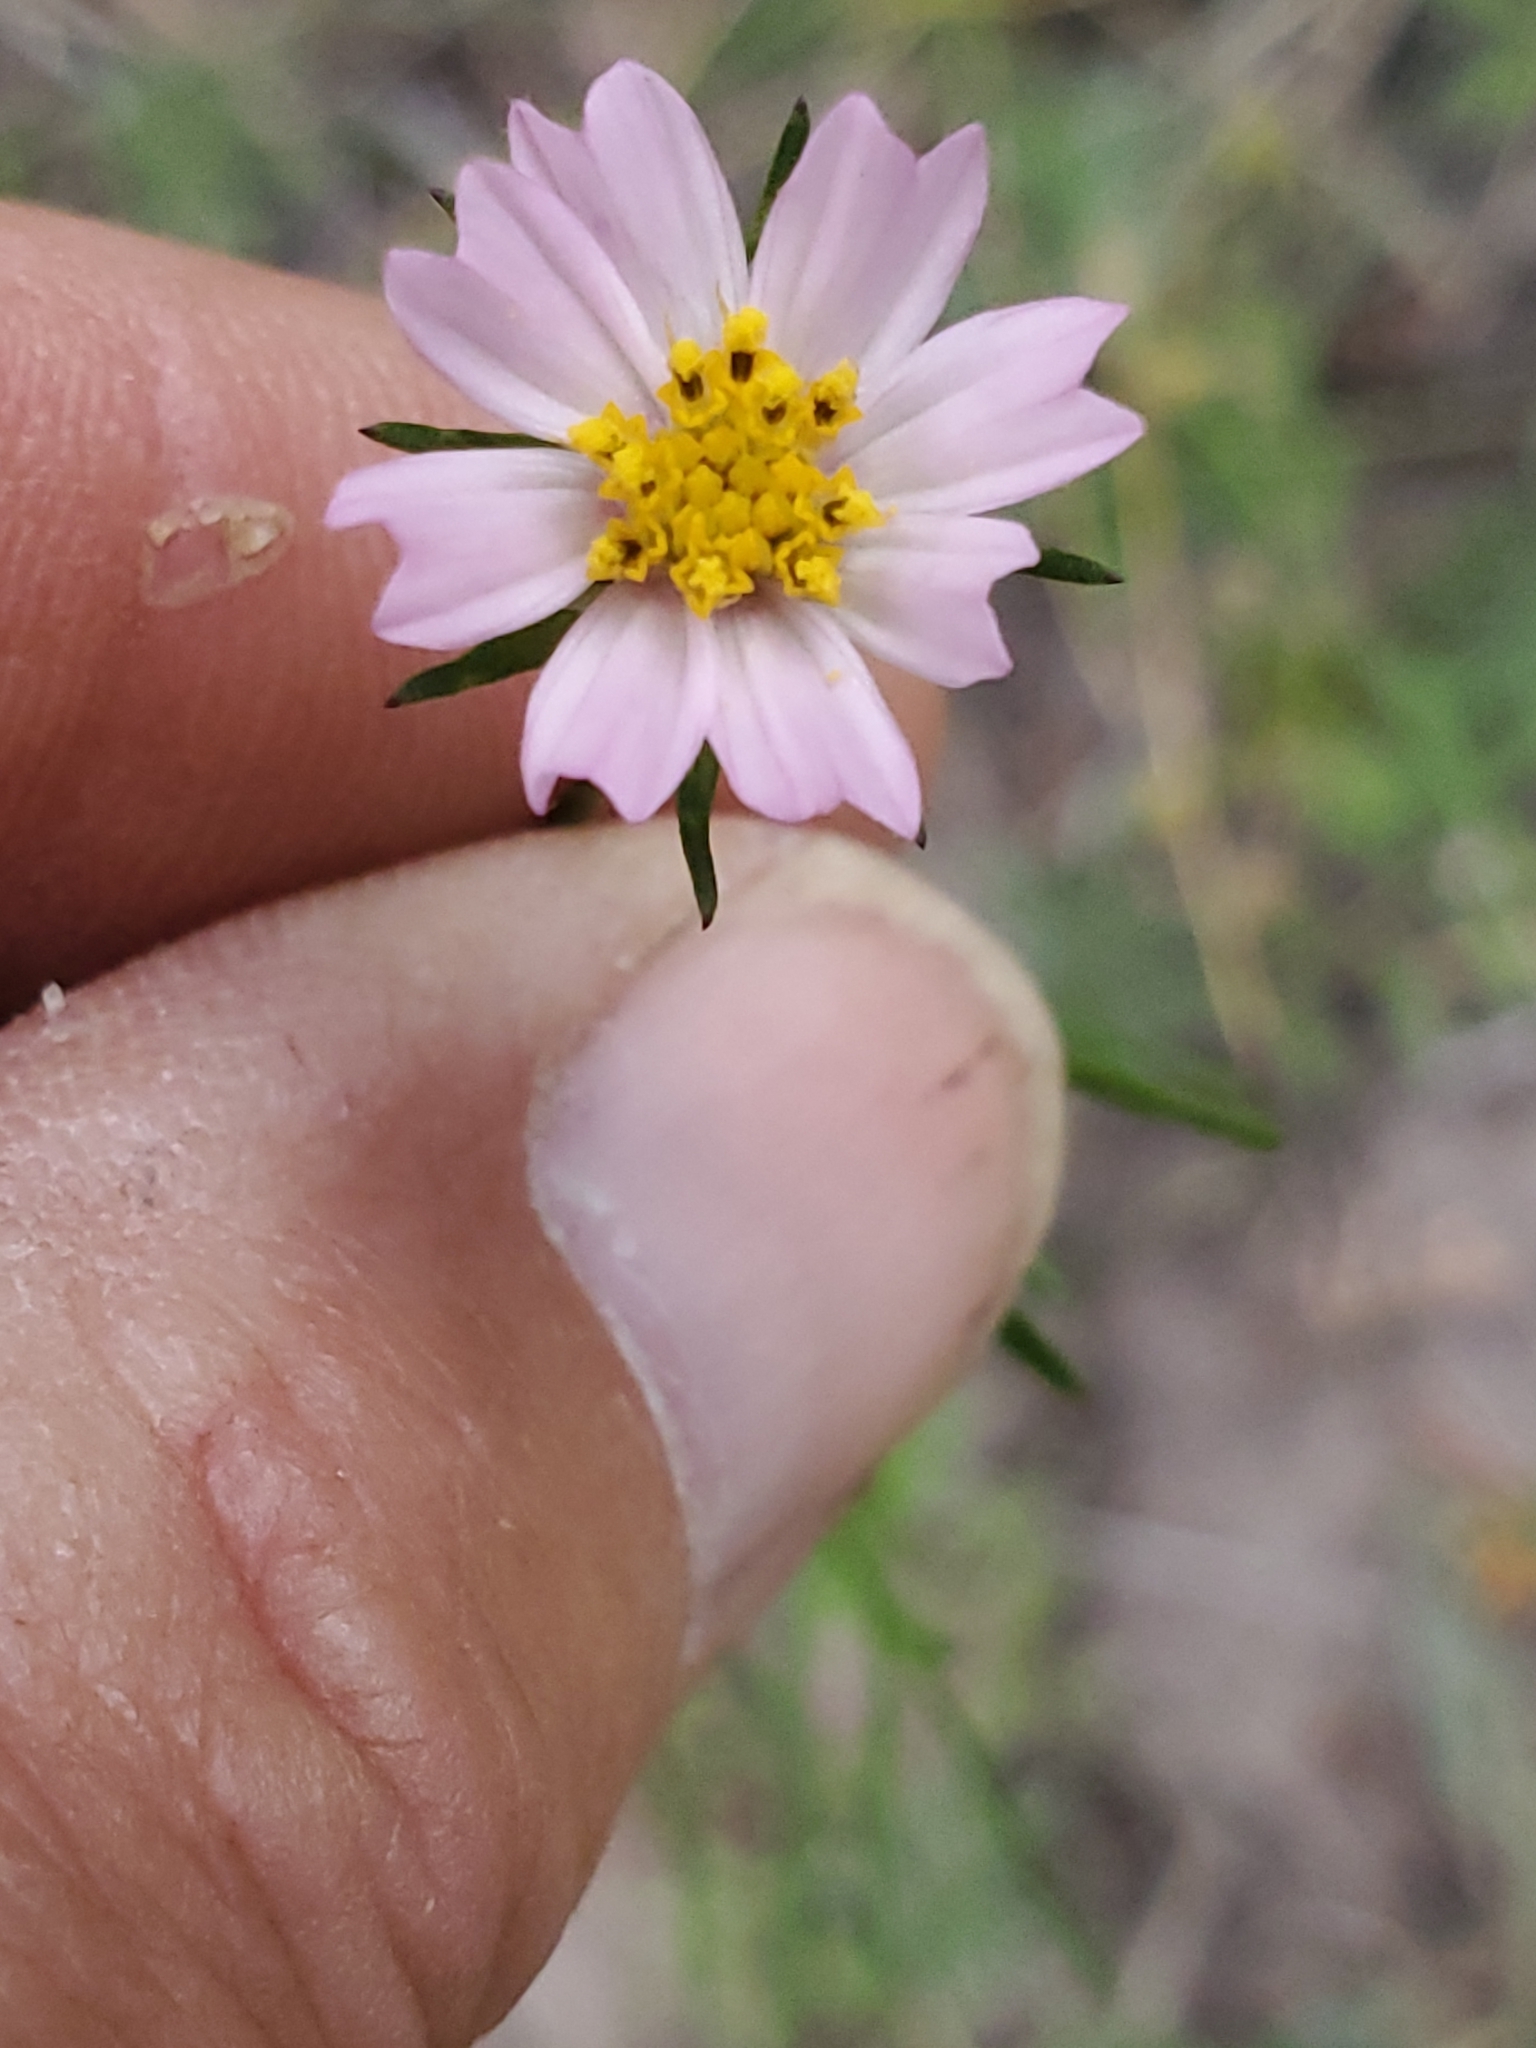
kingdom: Plantae
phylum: Tracheophyta
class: Magnoliopsida
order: Asterales
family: Asteraceae
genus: Cosmos
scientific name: Cosmos parviflorus
